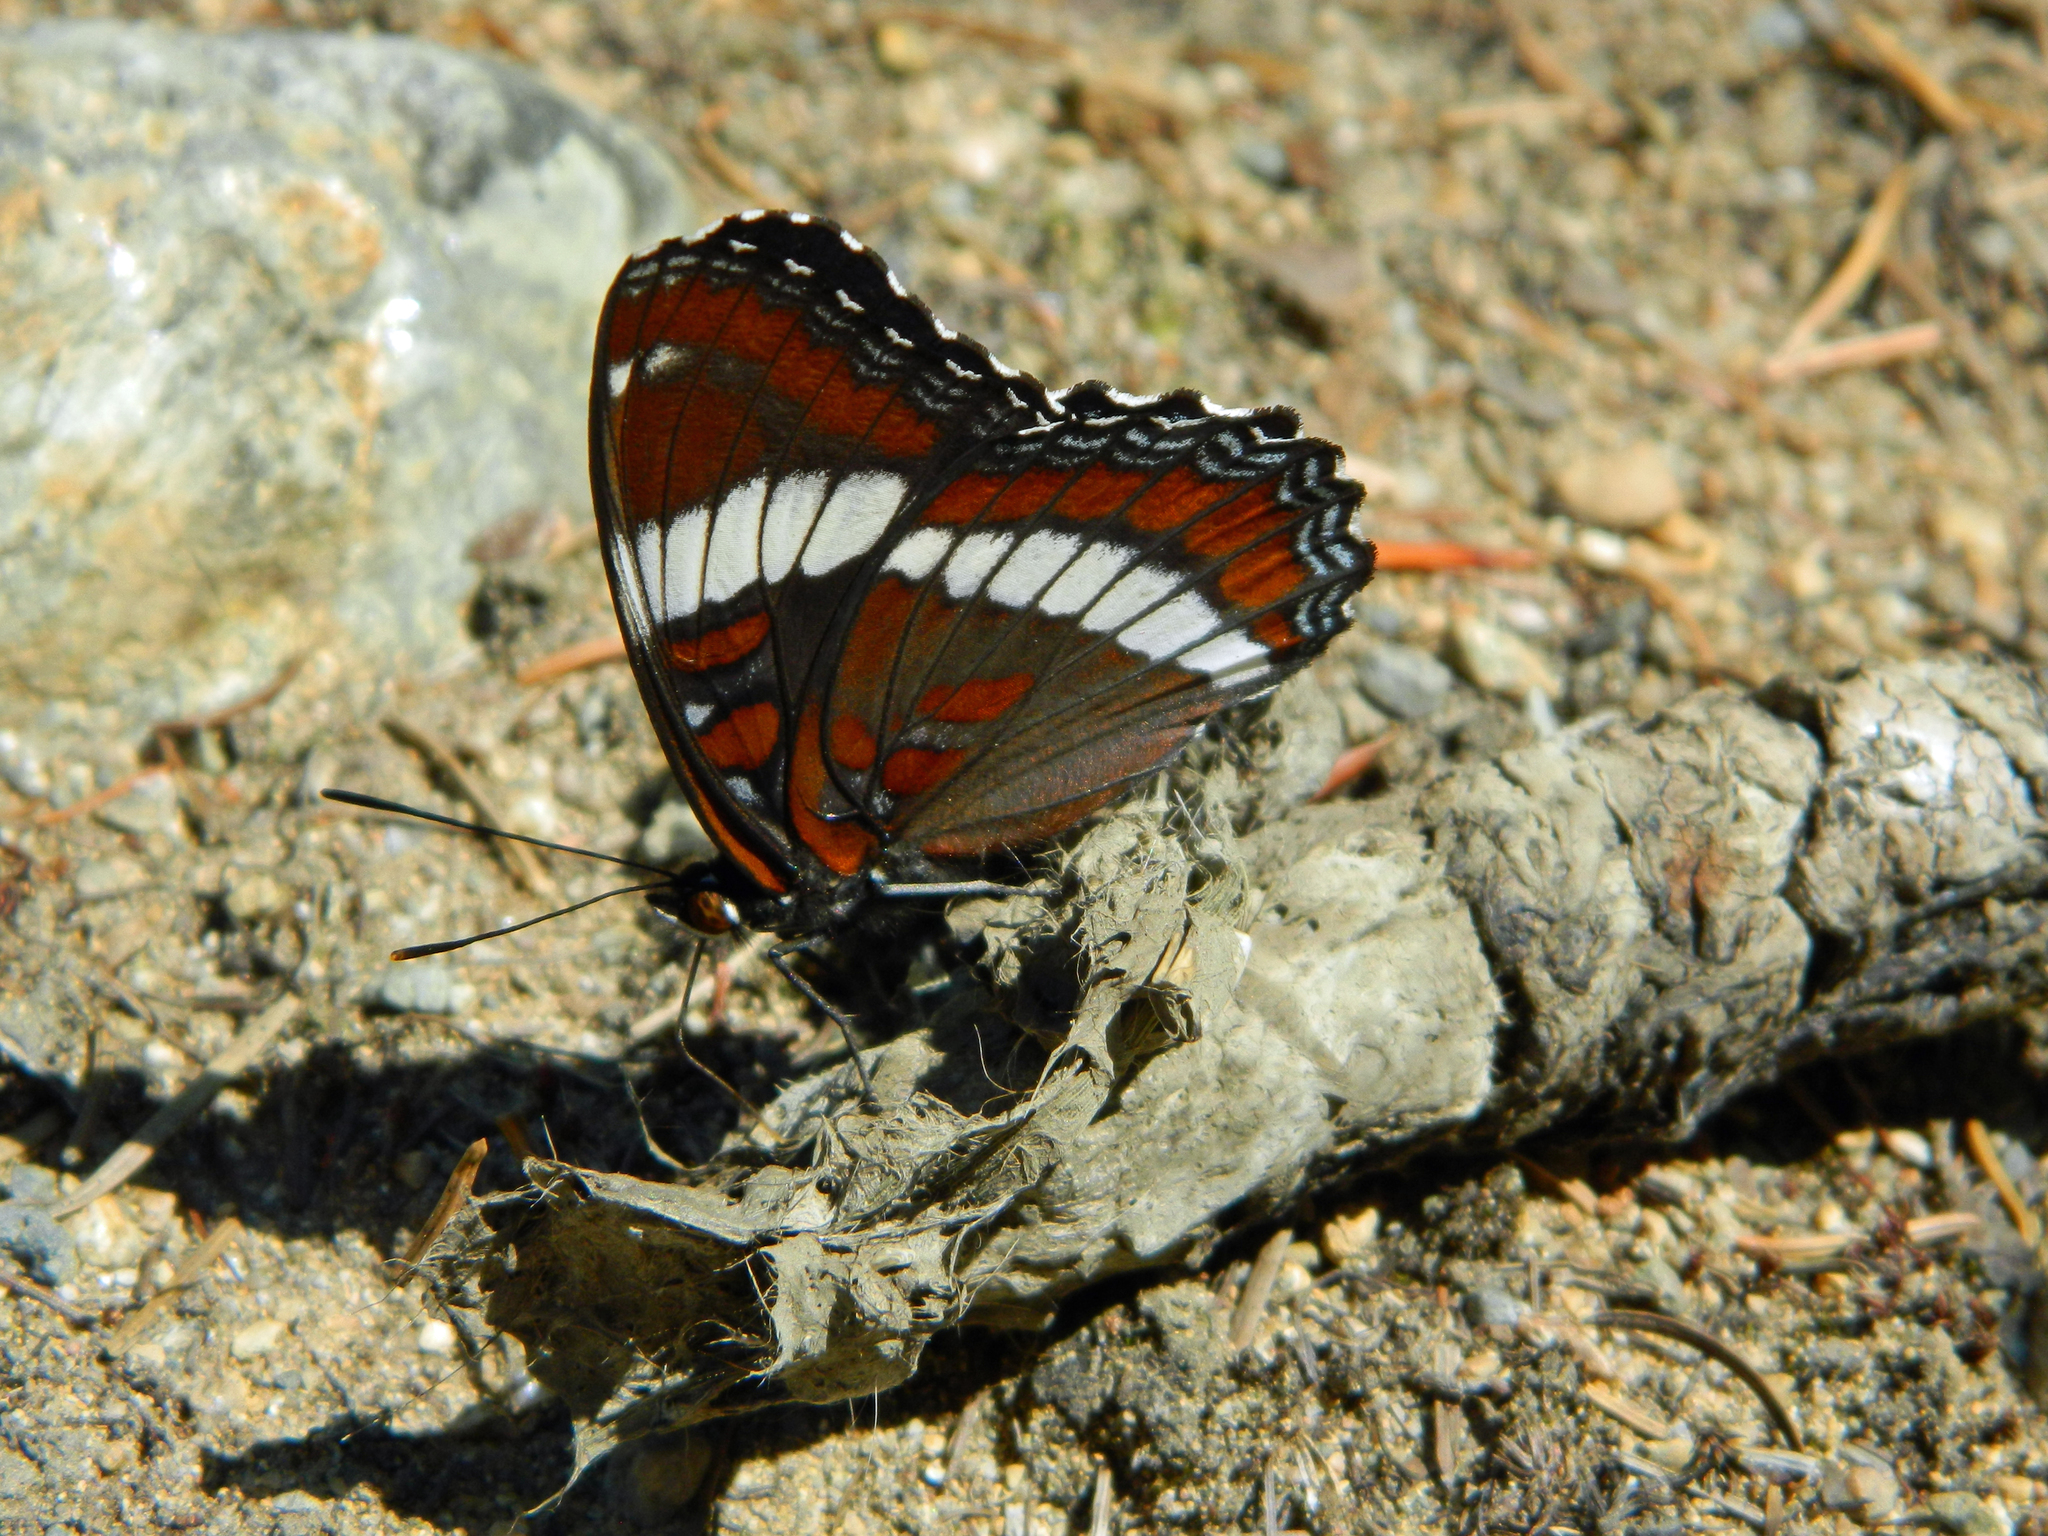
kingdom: Animalia
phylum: Arthropoda
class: Insecta
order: Lepidoptera
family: Nymphalidae
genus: Limenitis
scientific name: Limenitis arthemis
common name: Red-spotted admiral
